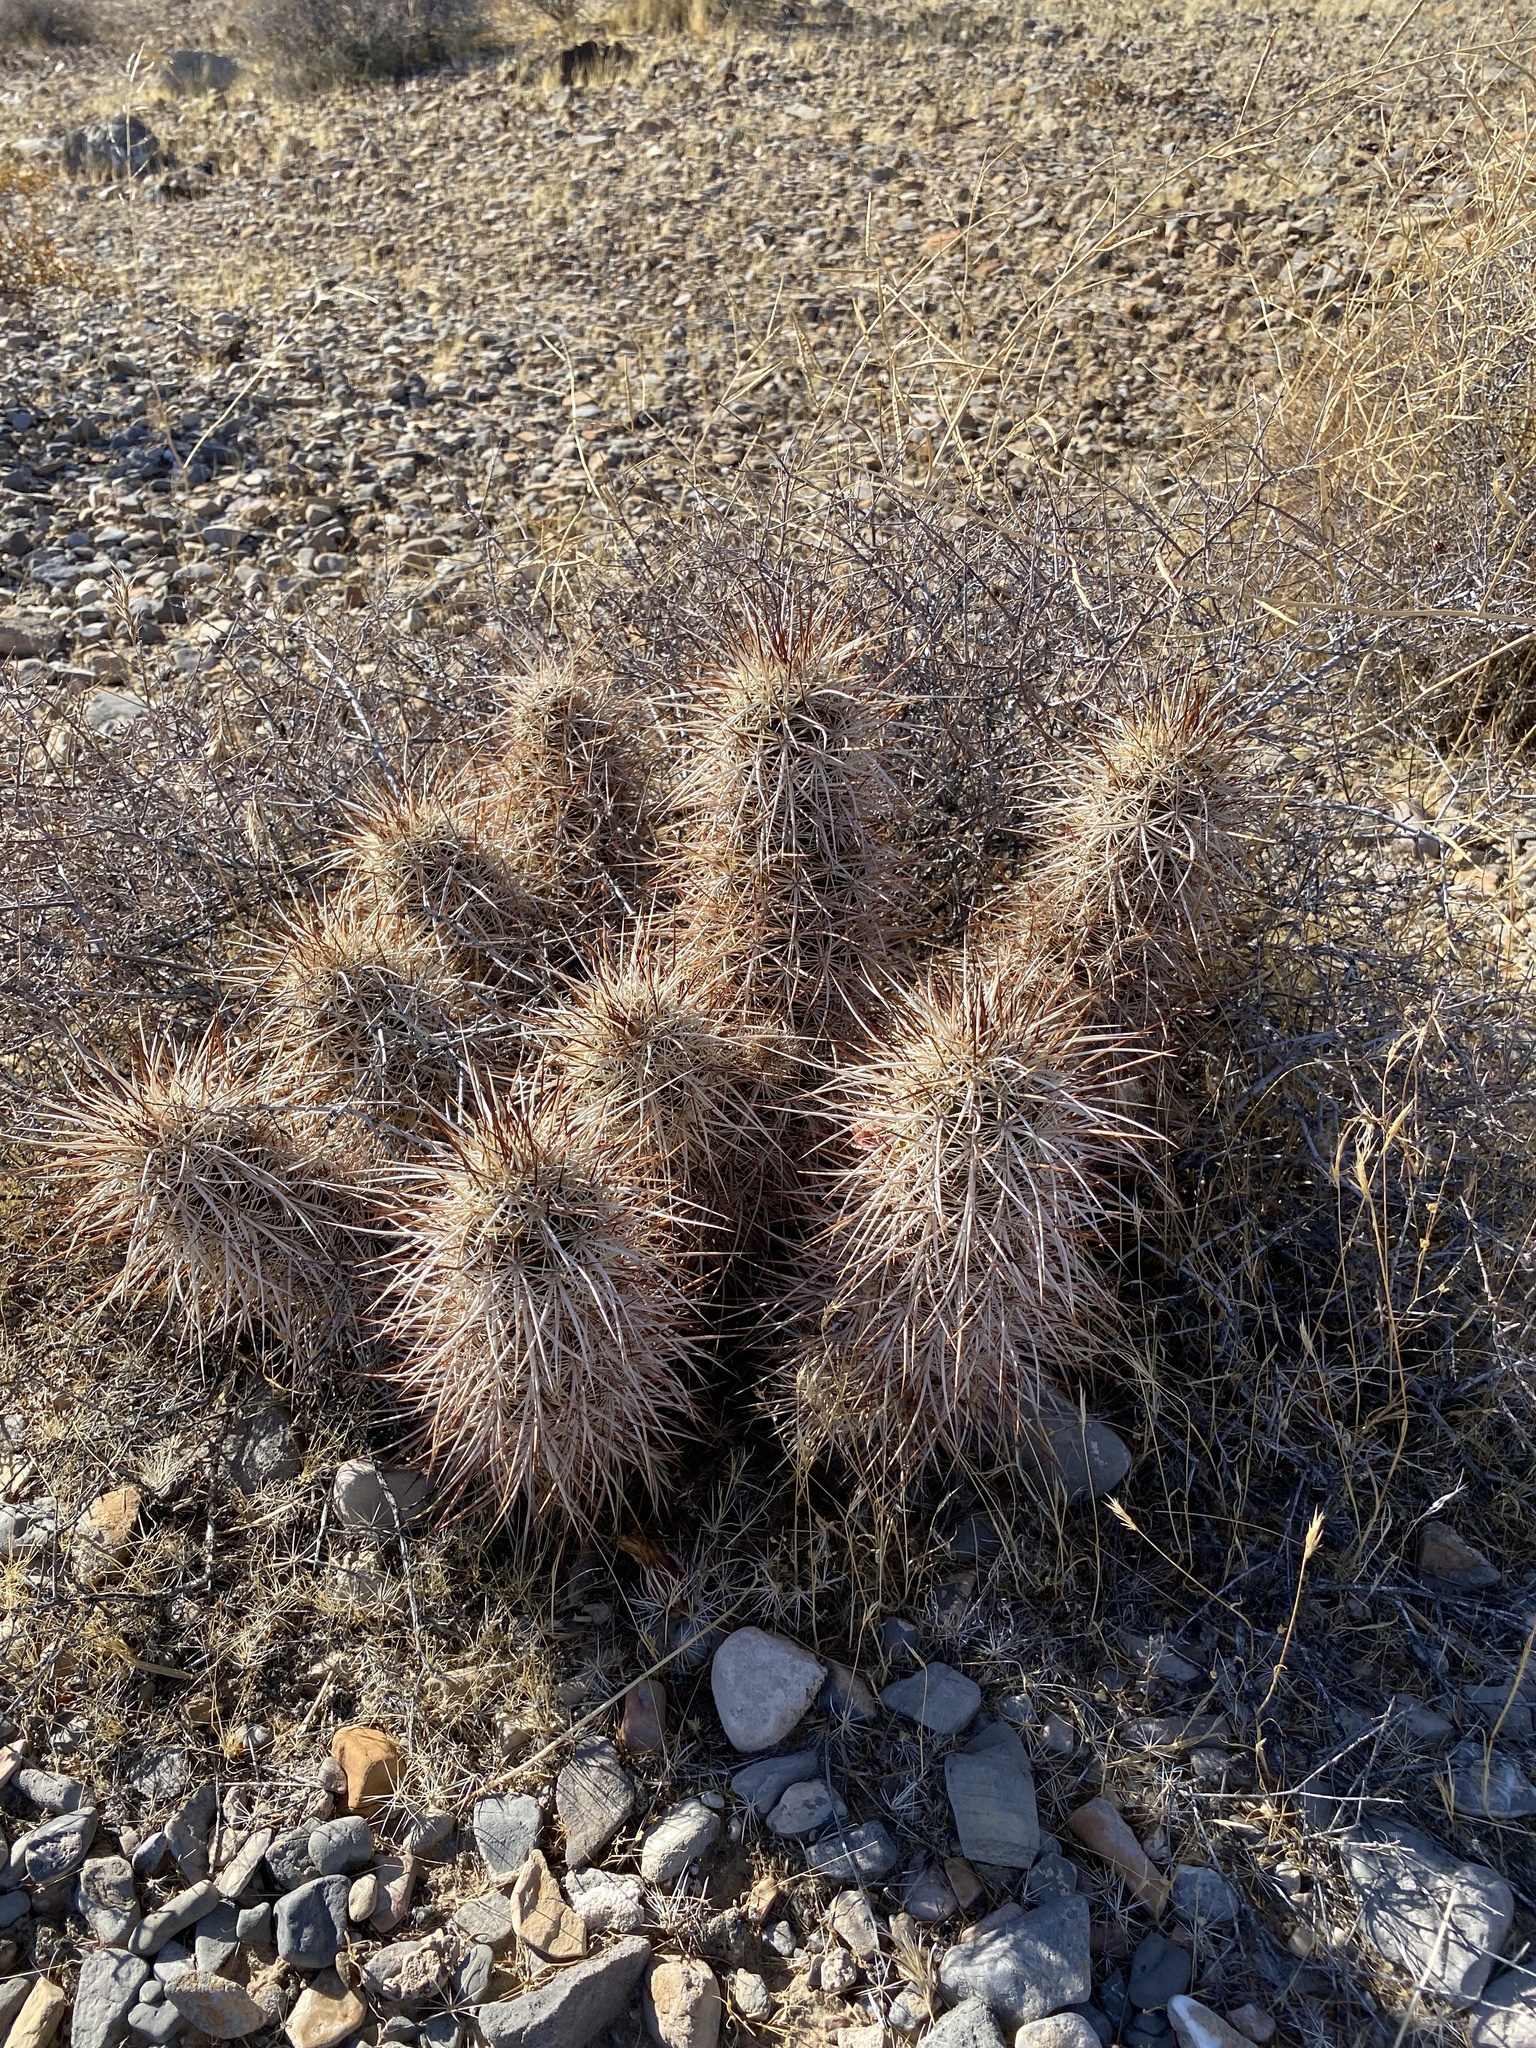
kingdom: Plantae
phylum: Tracheophyta
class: Magnoliopsida
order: Caryophyllales
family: Cactaceae
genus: Echinocereus
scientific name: Echinocereus engelmannii
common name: Engelmann's hedgehog cactus
